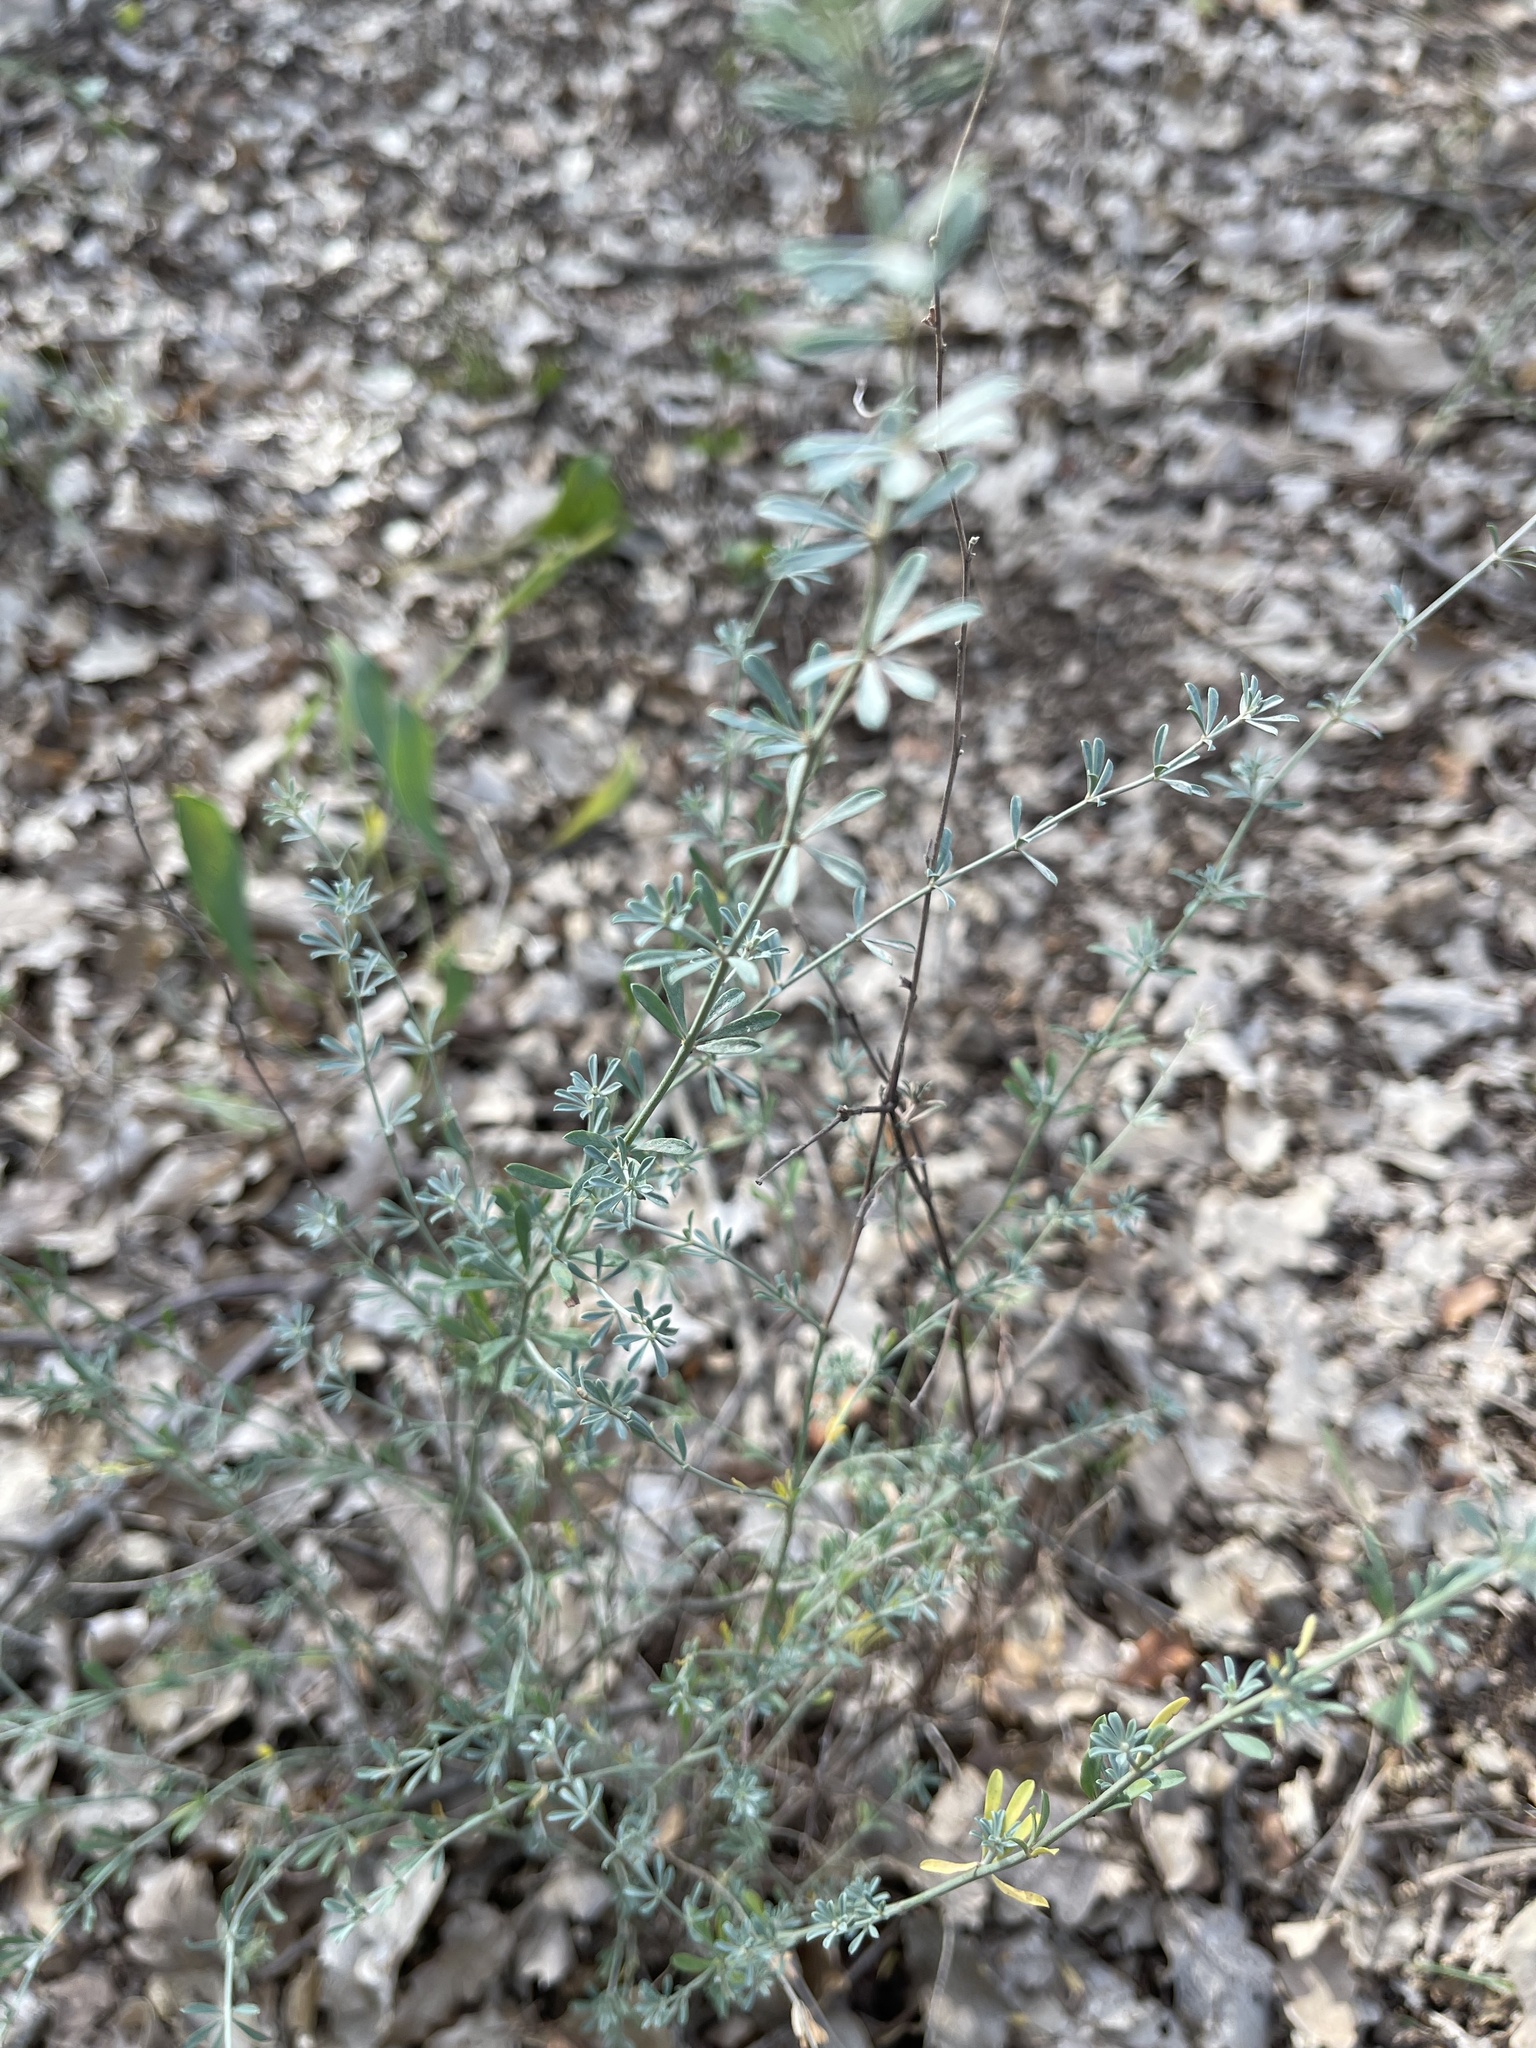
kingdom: Plantae
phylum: Tracheophyta
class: Magnoliopsida
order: Fabales
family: Fabaceae
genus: Lotus
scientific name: Lotus dorycnium
